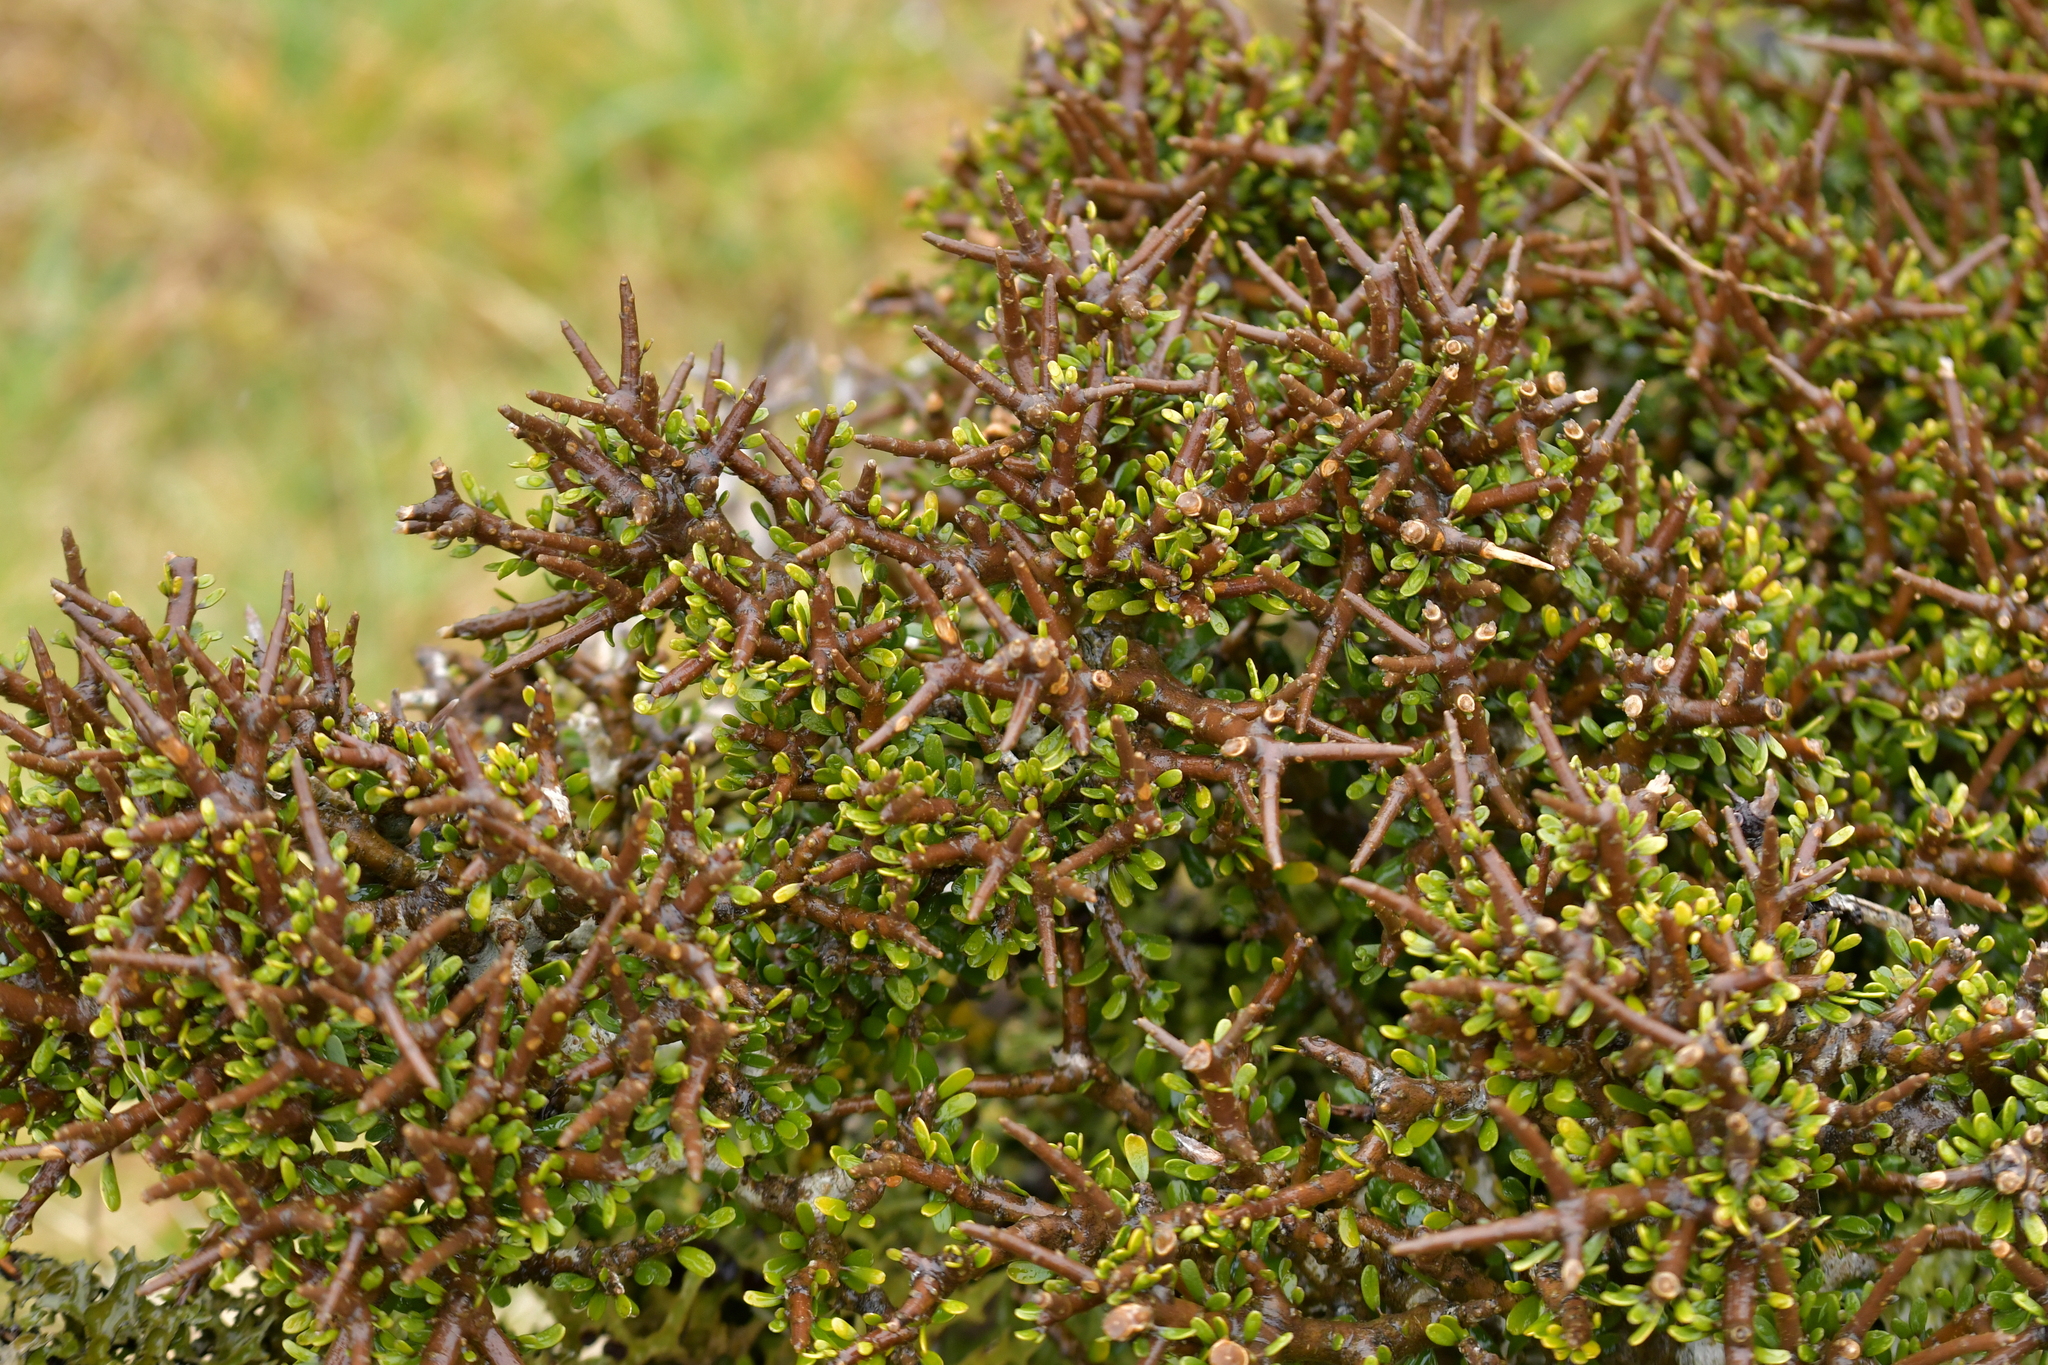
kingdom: Plantae
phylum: Tracheophyta
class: Magnoliopsida
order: Malpighiales
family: Violaceae
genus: Melicytus
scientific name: Melicytus alpinus
